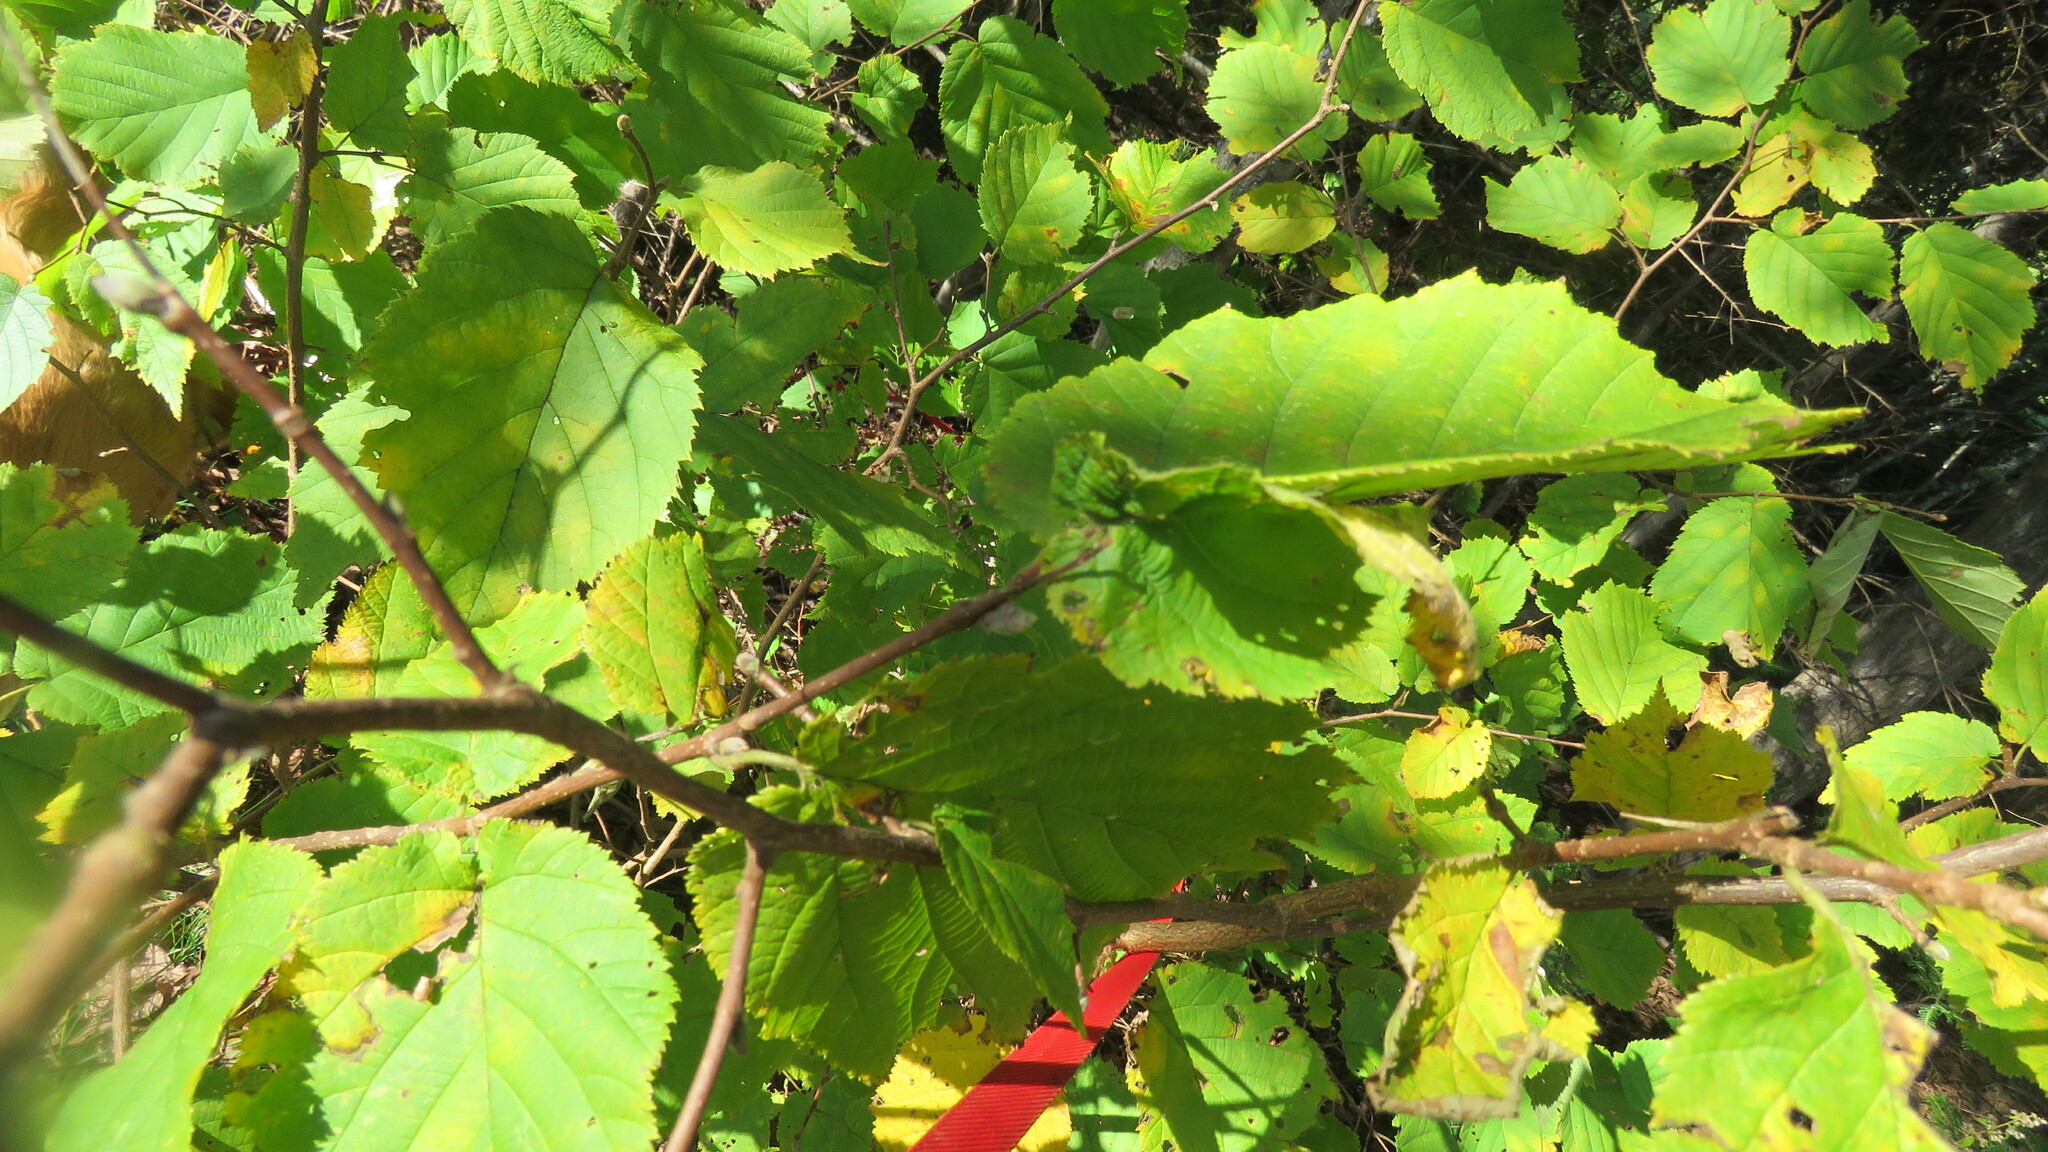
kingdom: Plantae
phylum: Tracheophyta
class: Magnoliopsida
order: Fagales
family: Betulaceae
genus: Corylus
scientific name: Corylus cornuta
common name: Beaked hazel
